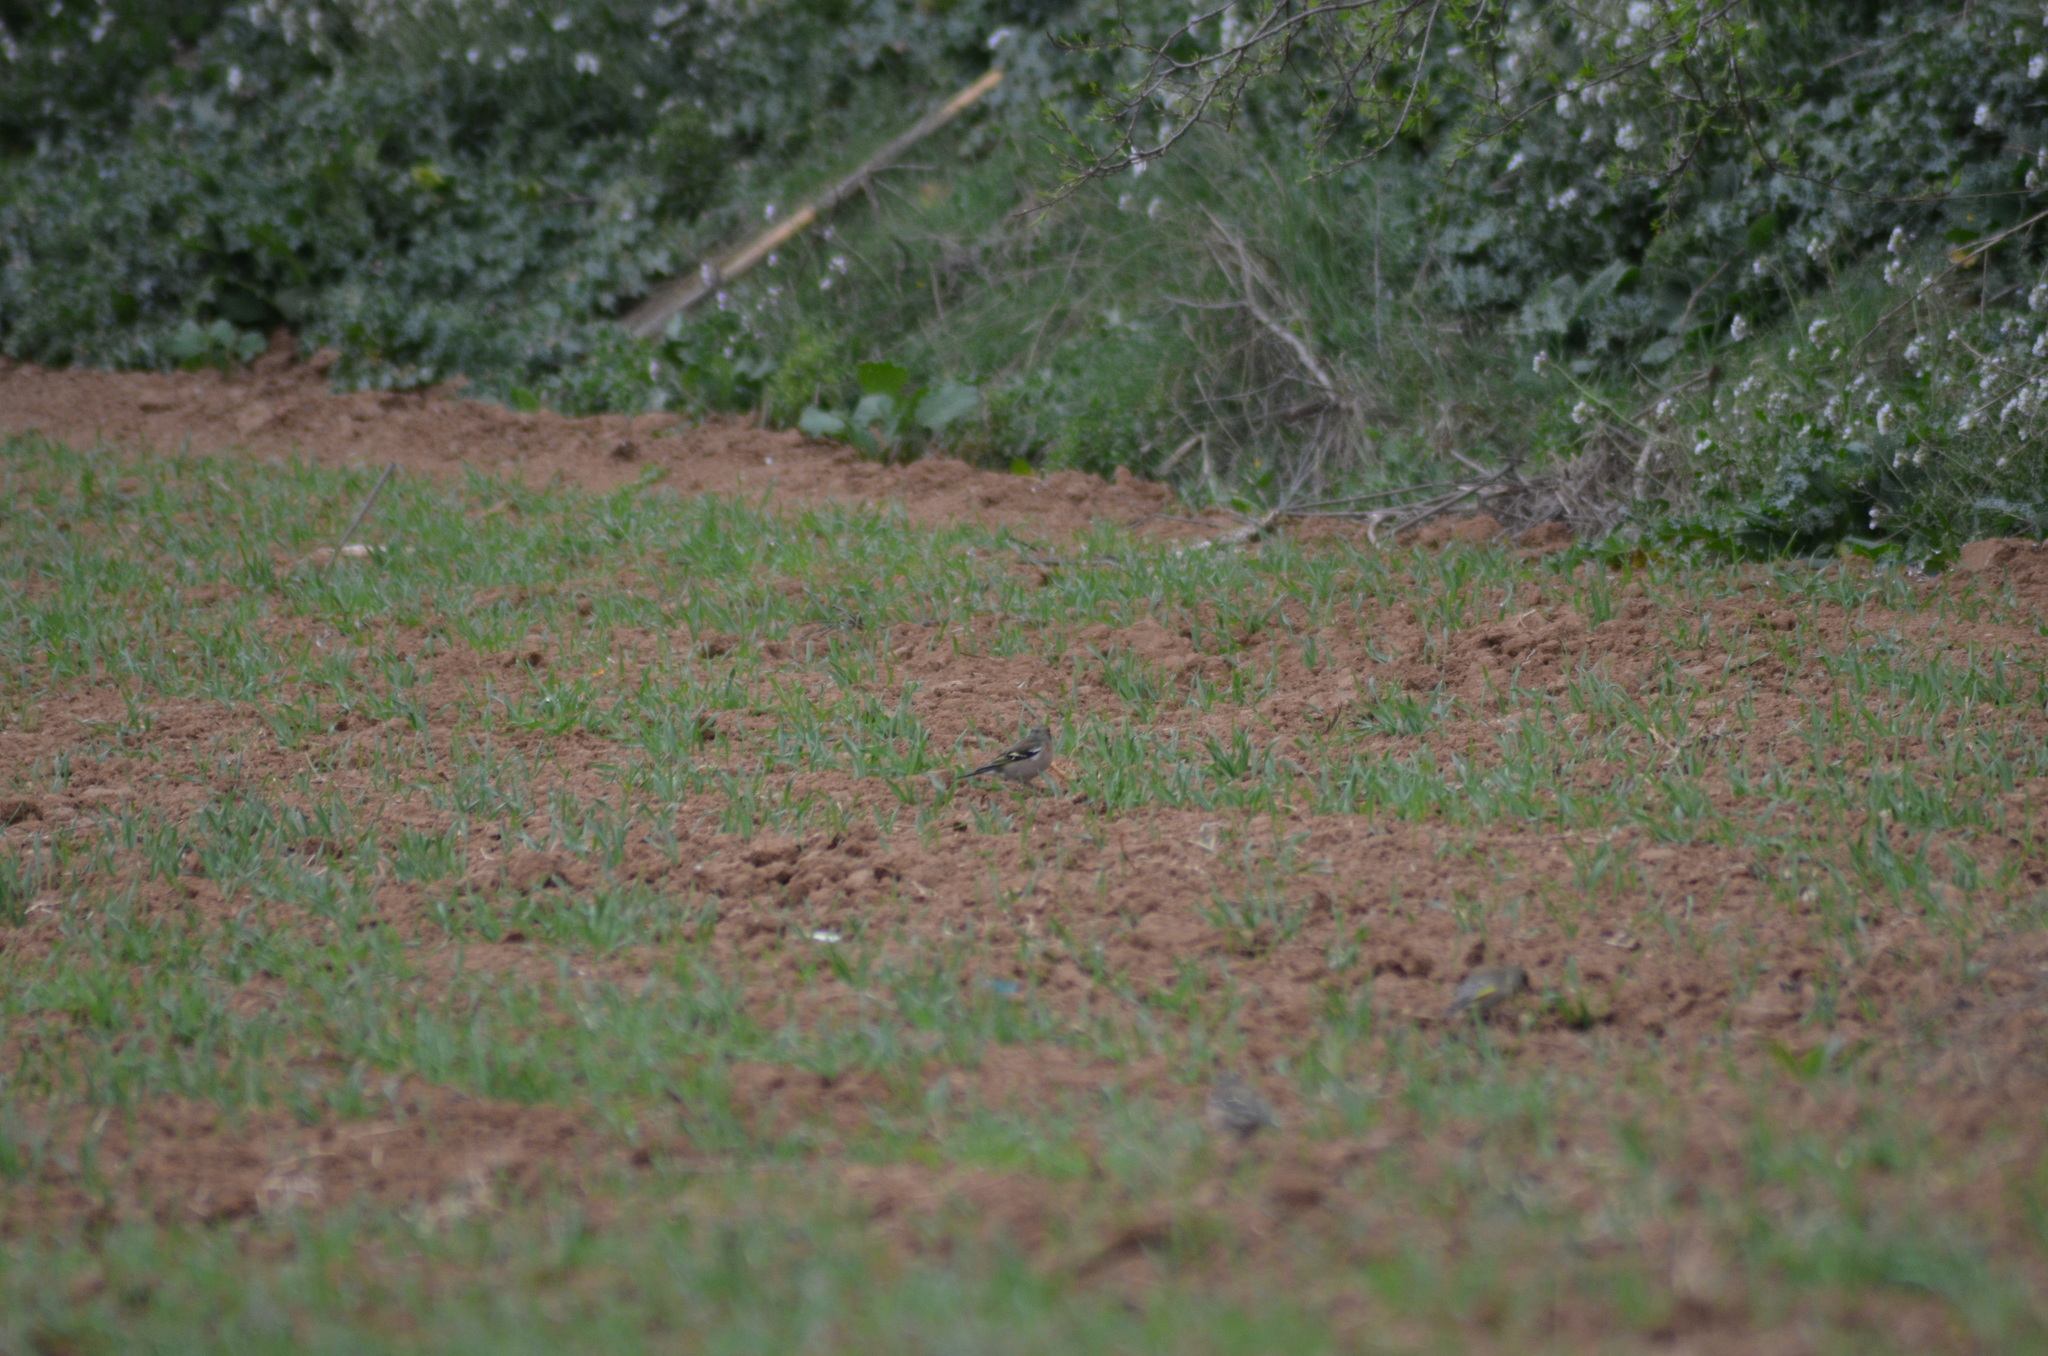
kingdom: Animalia
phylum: Chordata
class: Aves
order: Passeriformes
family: Fringillidae
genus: Fringilla
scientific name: Fringilla coelebs
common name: Common chaffinch
